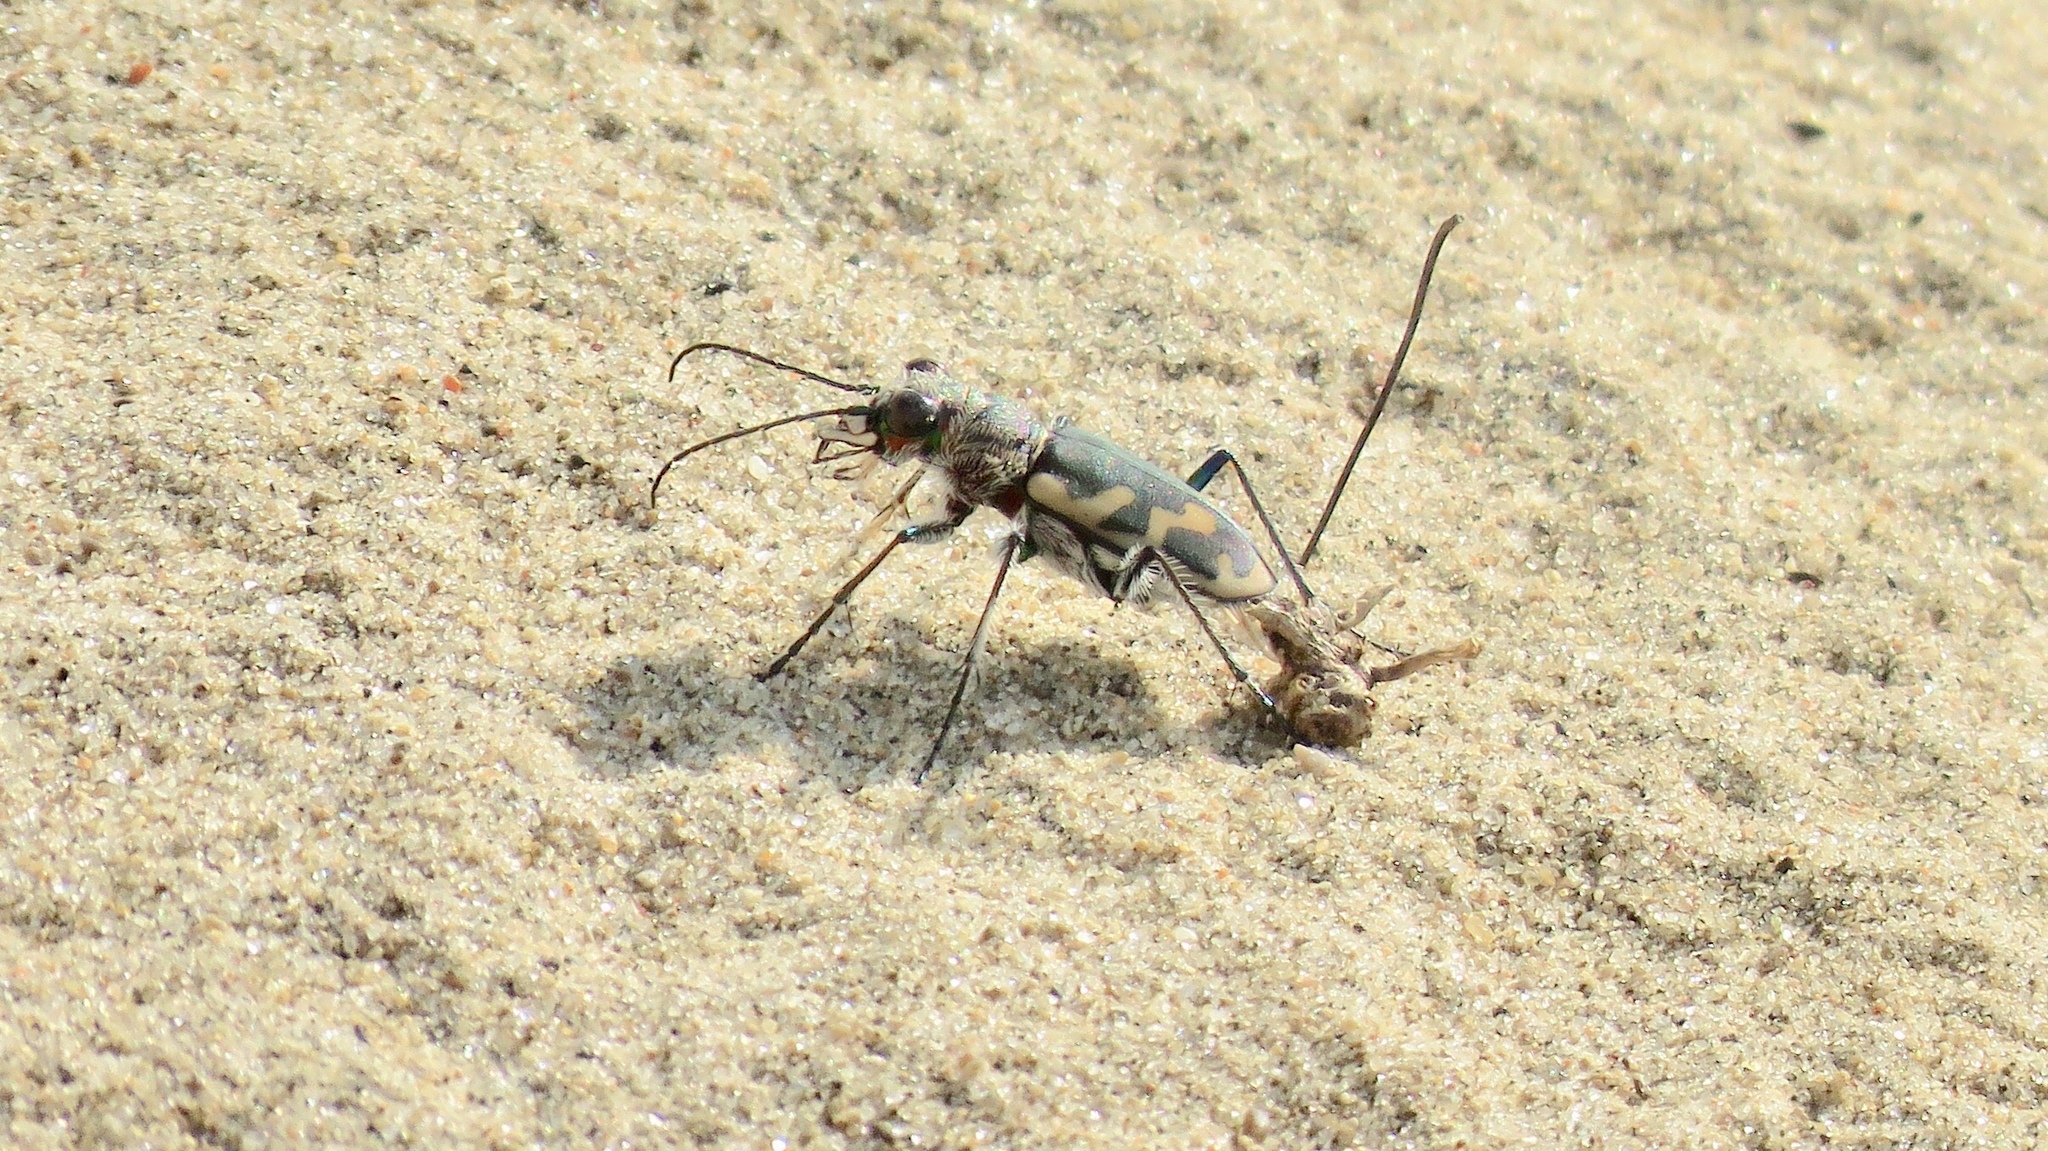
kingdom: Animalia
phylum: Arthropoda
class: Insecta
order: Coleoptera
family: Carabidae
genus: Cicindela
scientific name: Cicindela formosa
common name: Big sand tiger beetle
